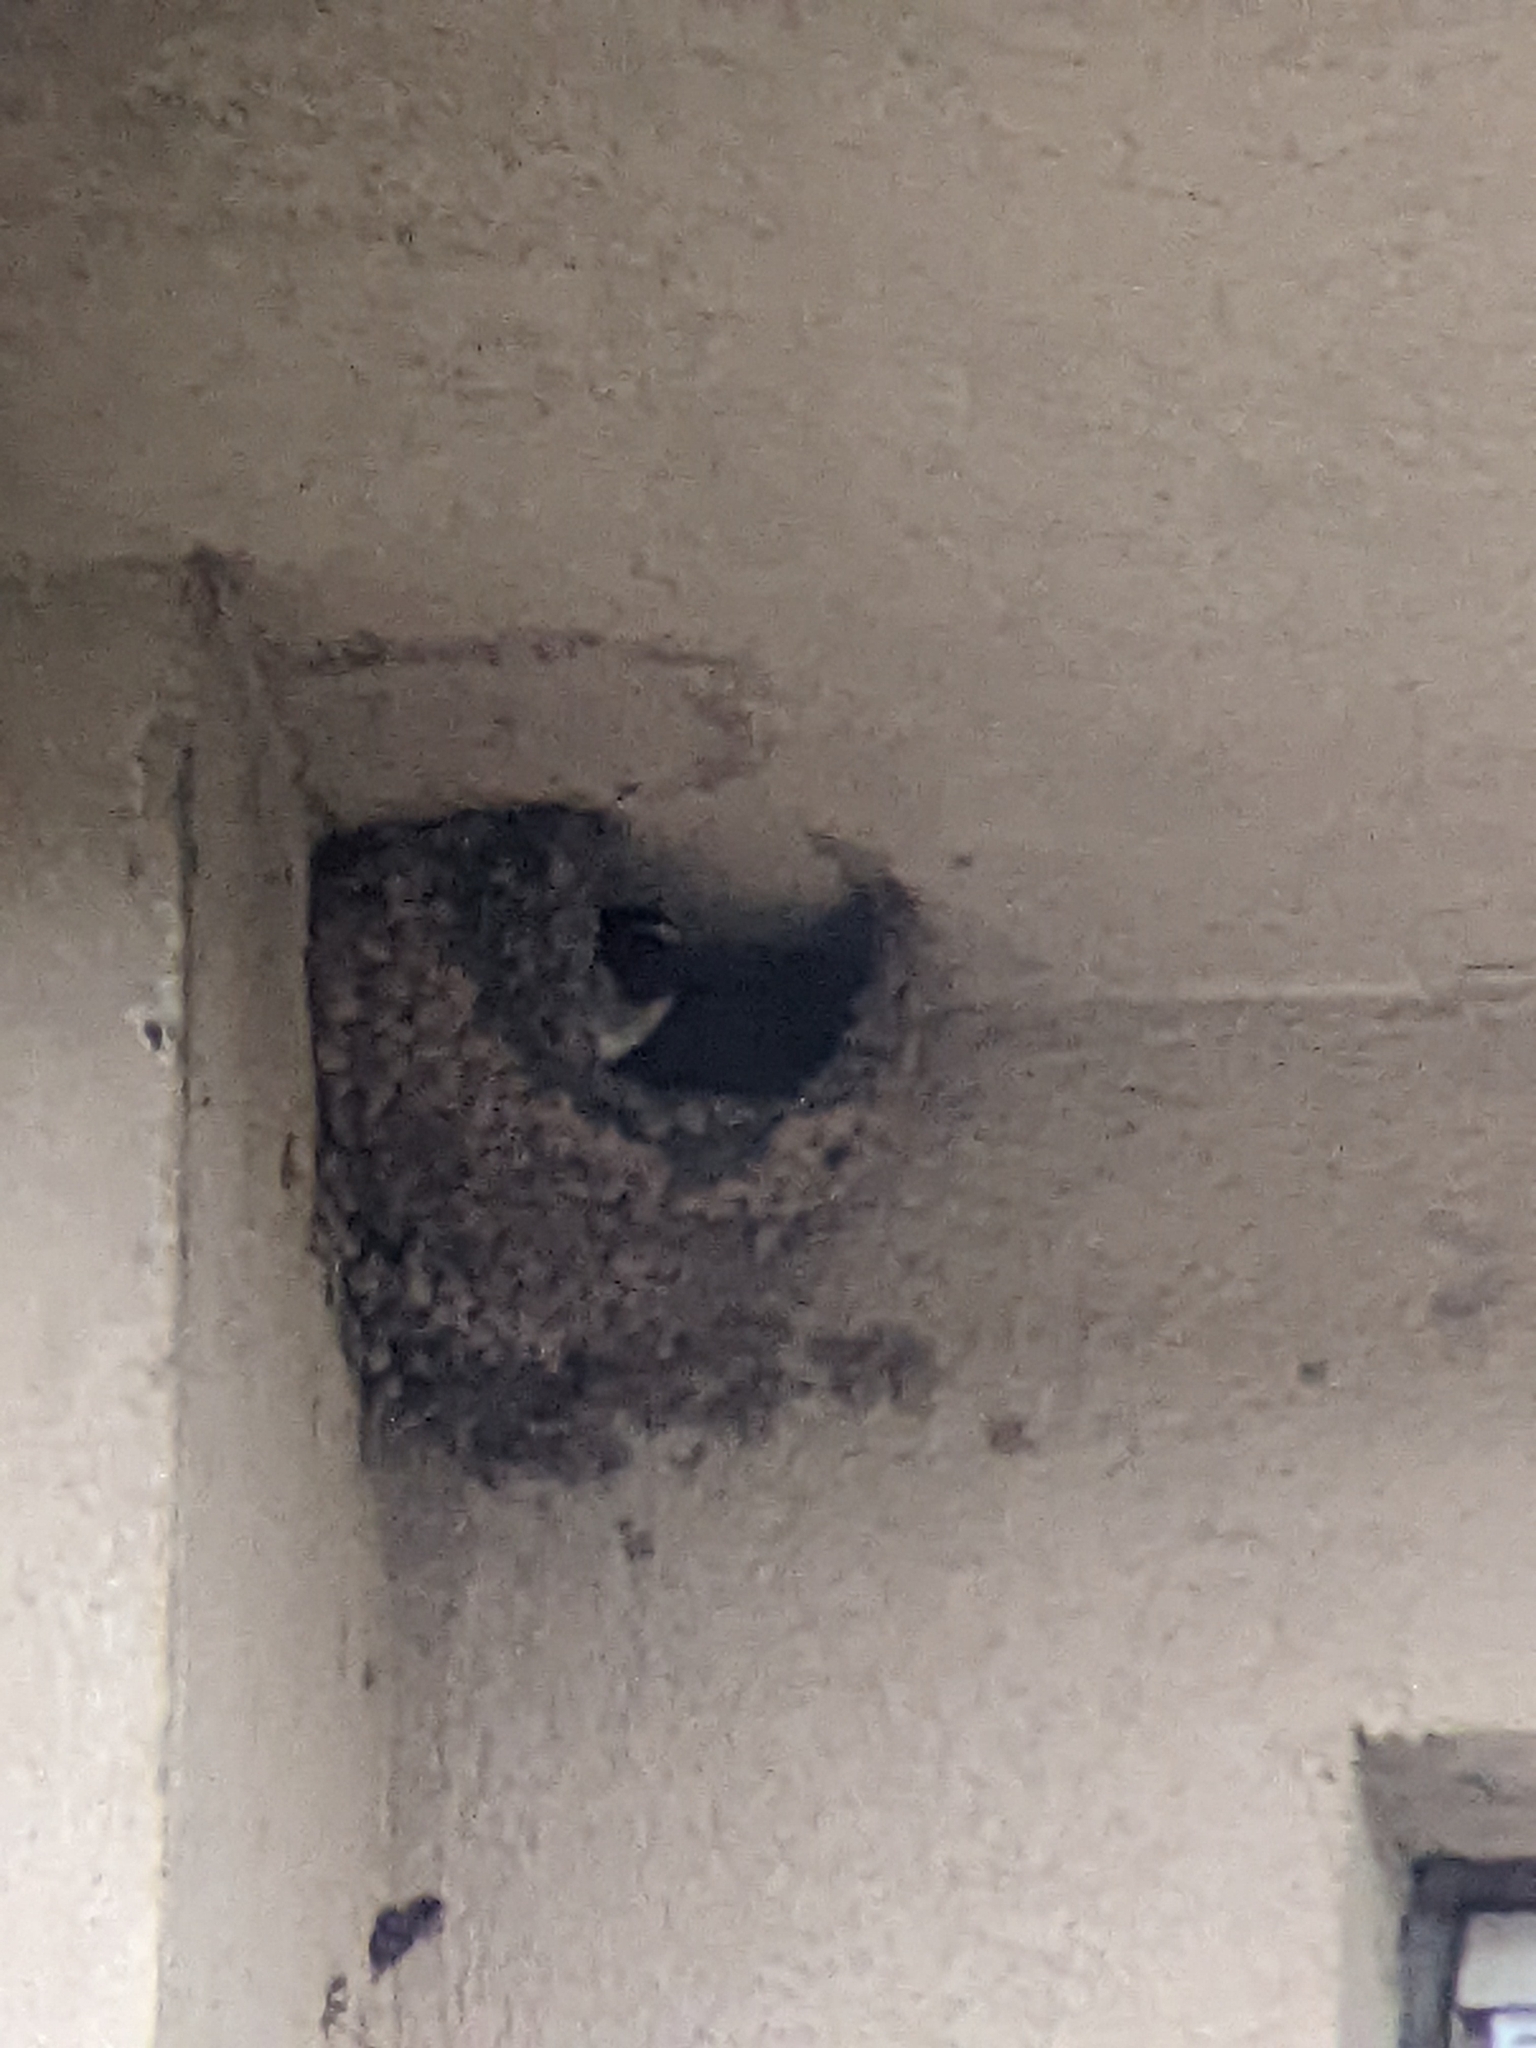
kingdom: Animalia
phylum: Chordata
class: Aves
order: Passeriformes
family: Hirundinidae
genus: Petrochelidon
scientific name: Petrochelidon pyrrhonota
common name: American cliff swallow
